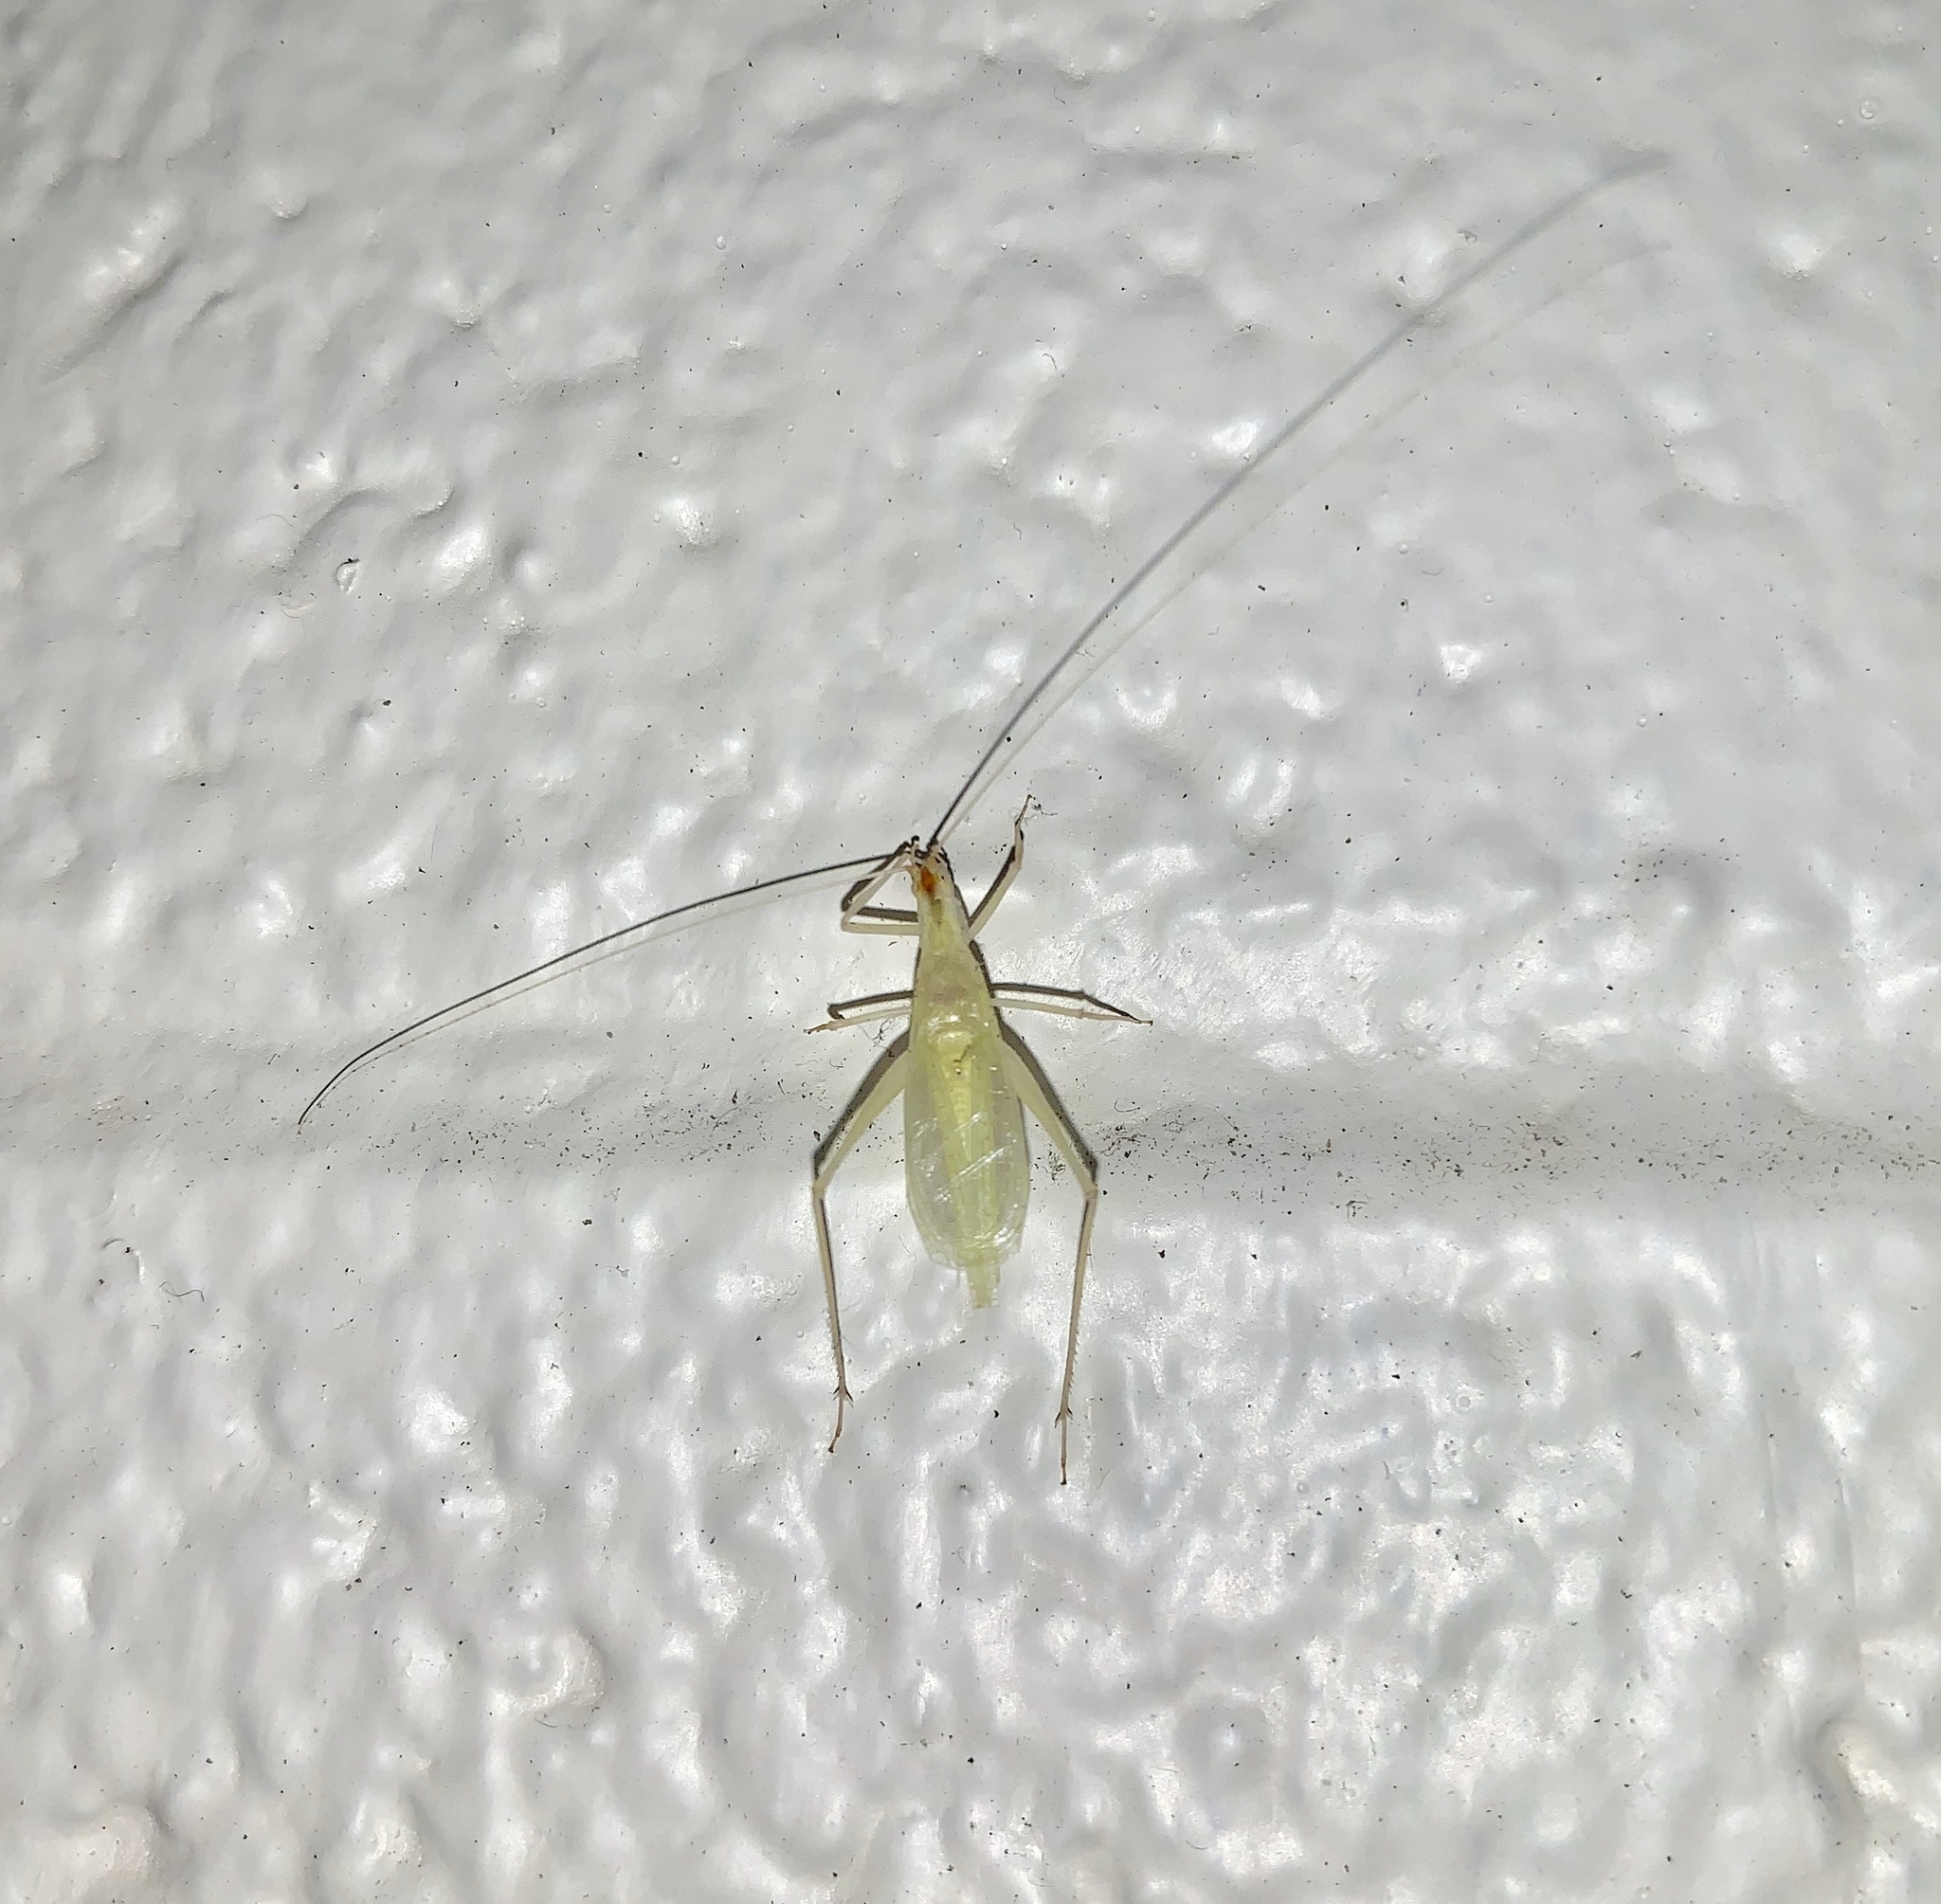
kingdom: Animalia
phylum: Arthropoda
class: Insecta
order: Orthoptera
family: Gryllidae
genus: Oecanthus
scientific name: Oecanthus fultoni
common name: Snowy tree cricket
